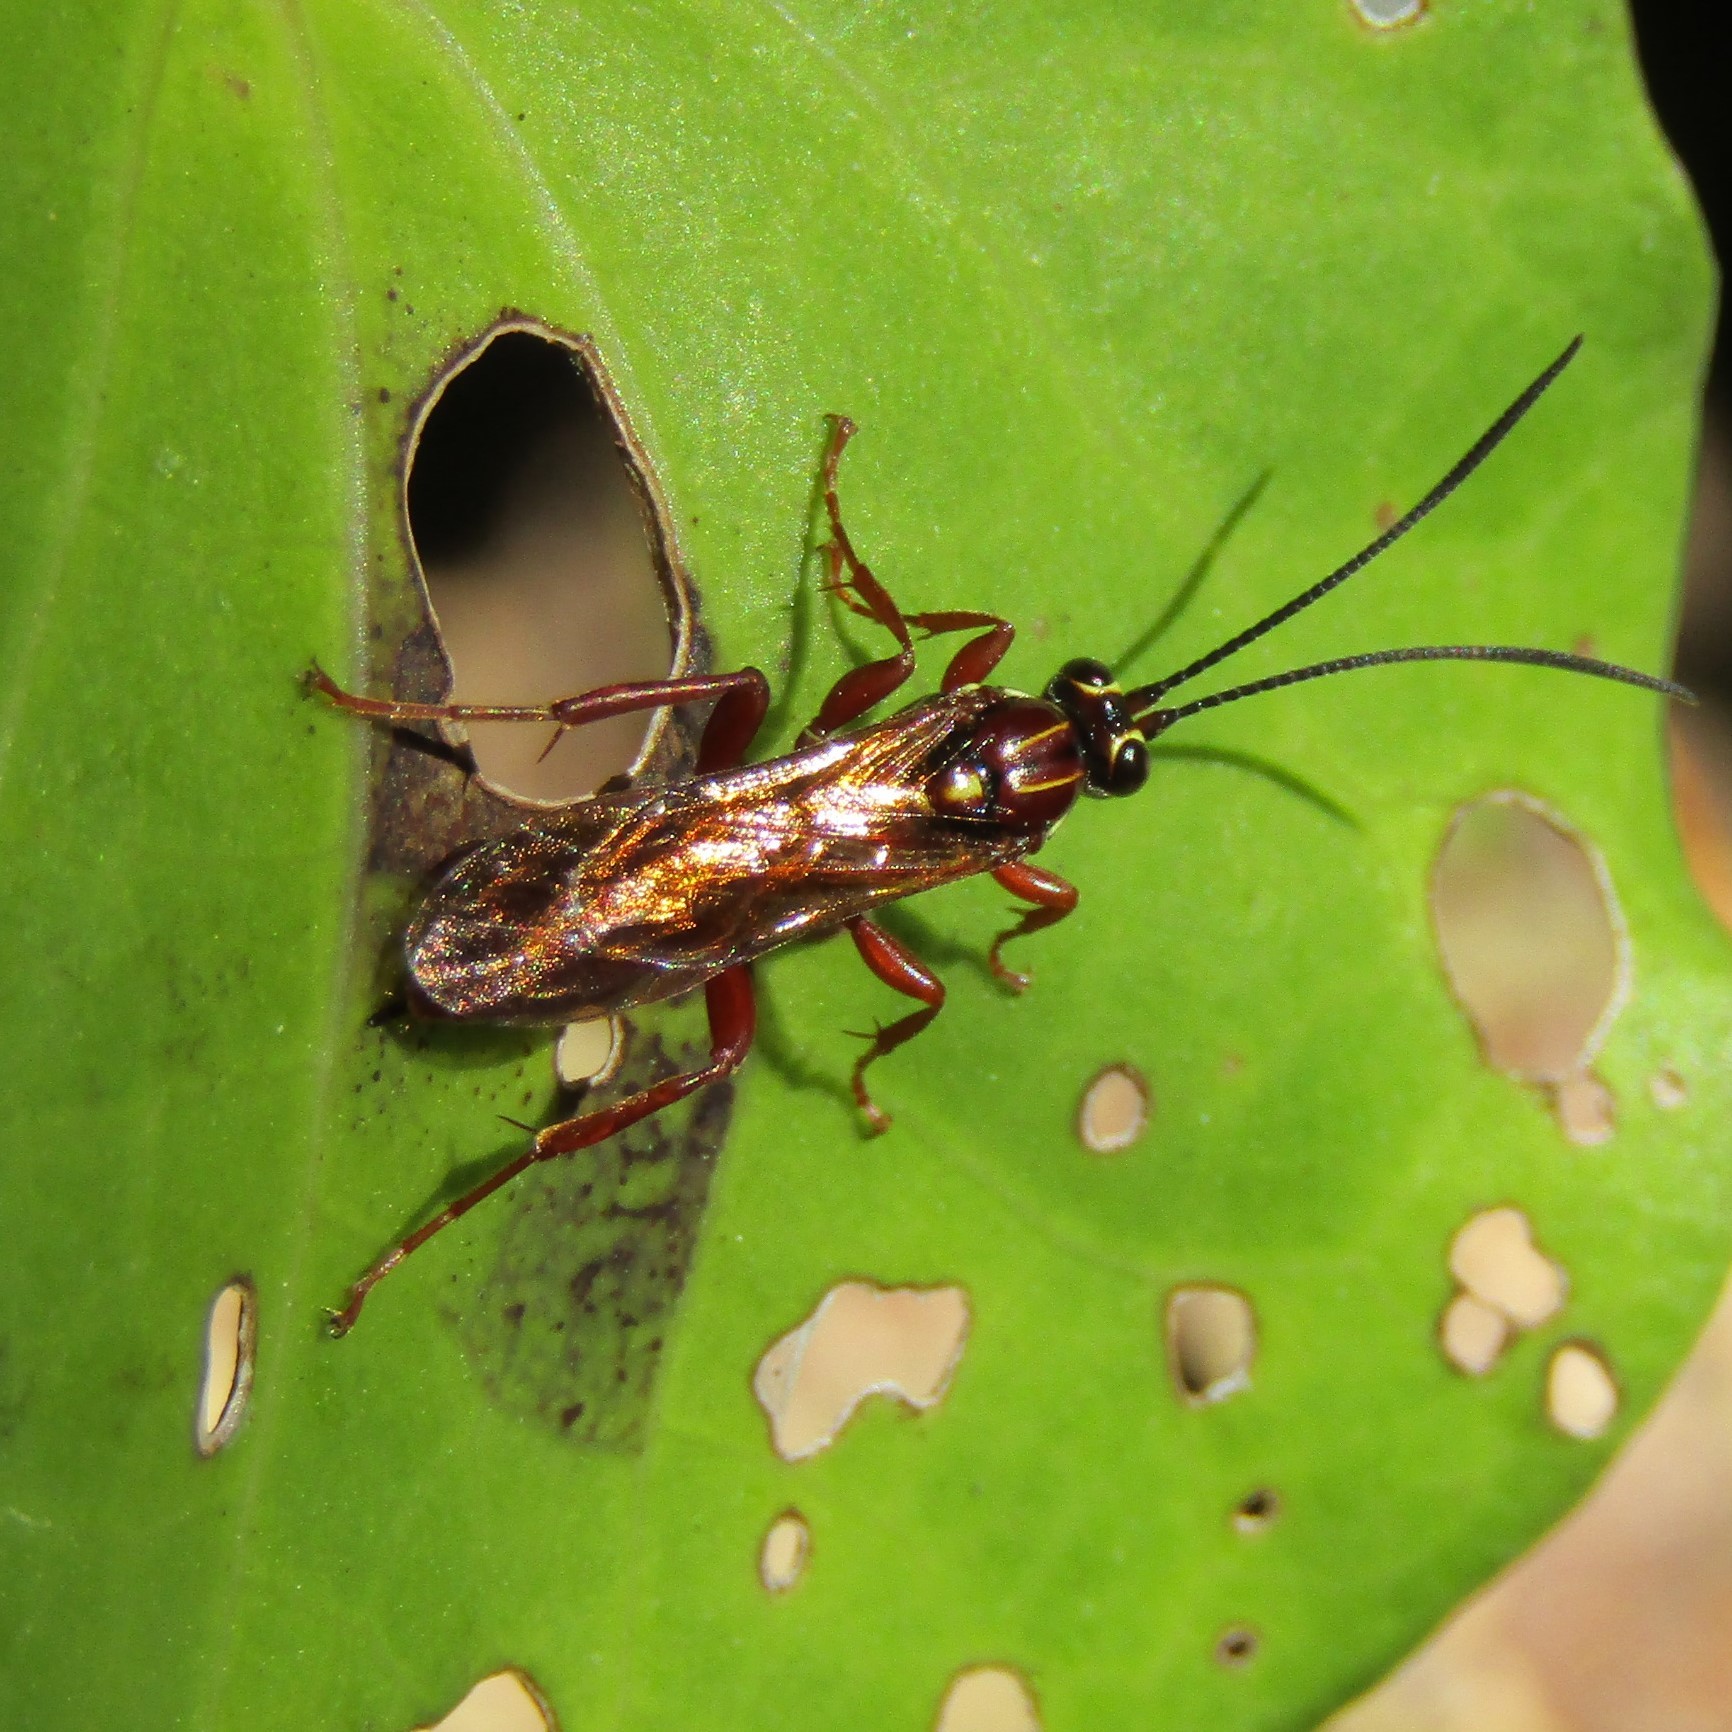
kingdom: Animalia
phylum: Arthropoda
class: Insecta
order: Hymenoptera
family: Ichneumonidae
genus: Aucklandella
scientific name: Aucklandella conspirata
